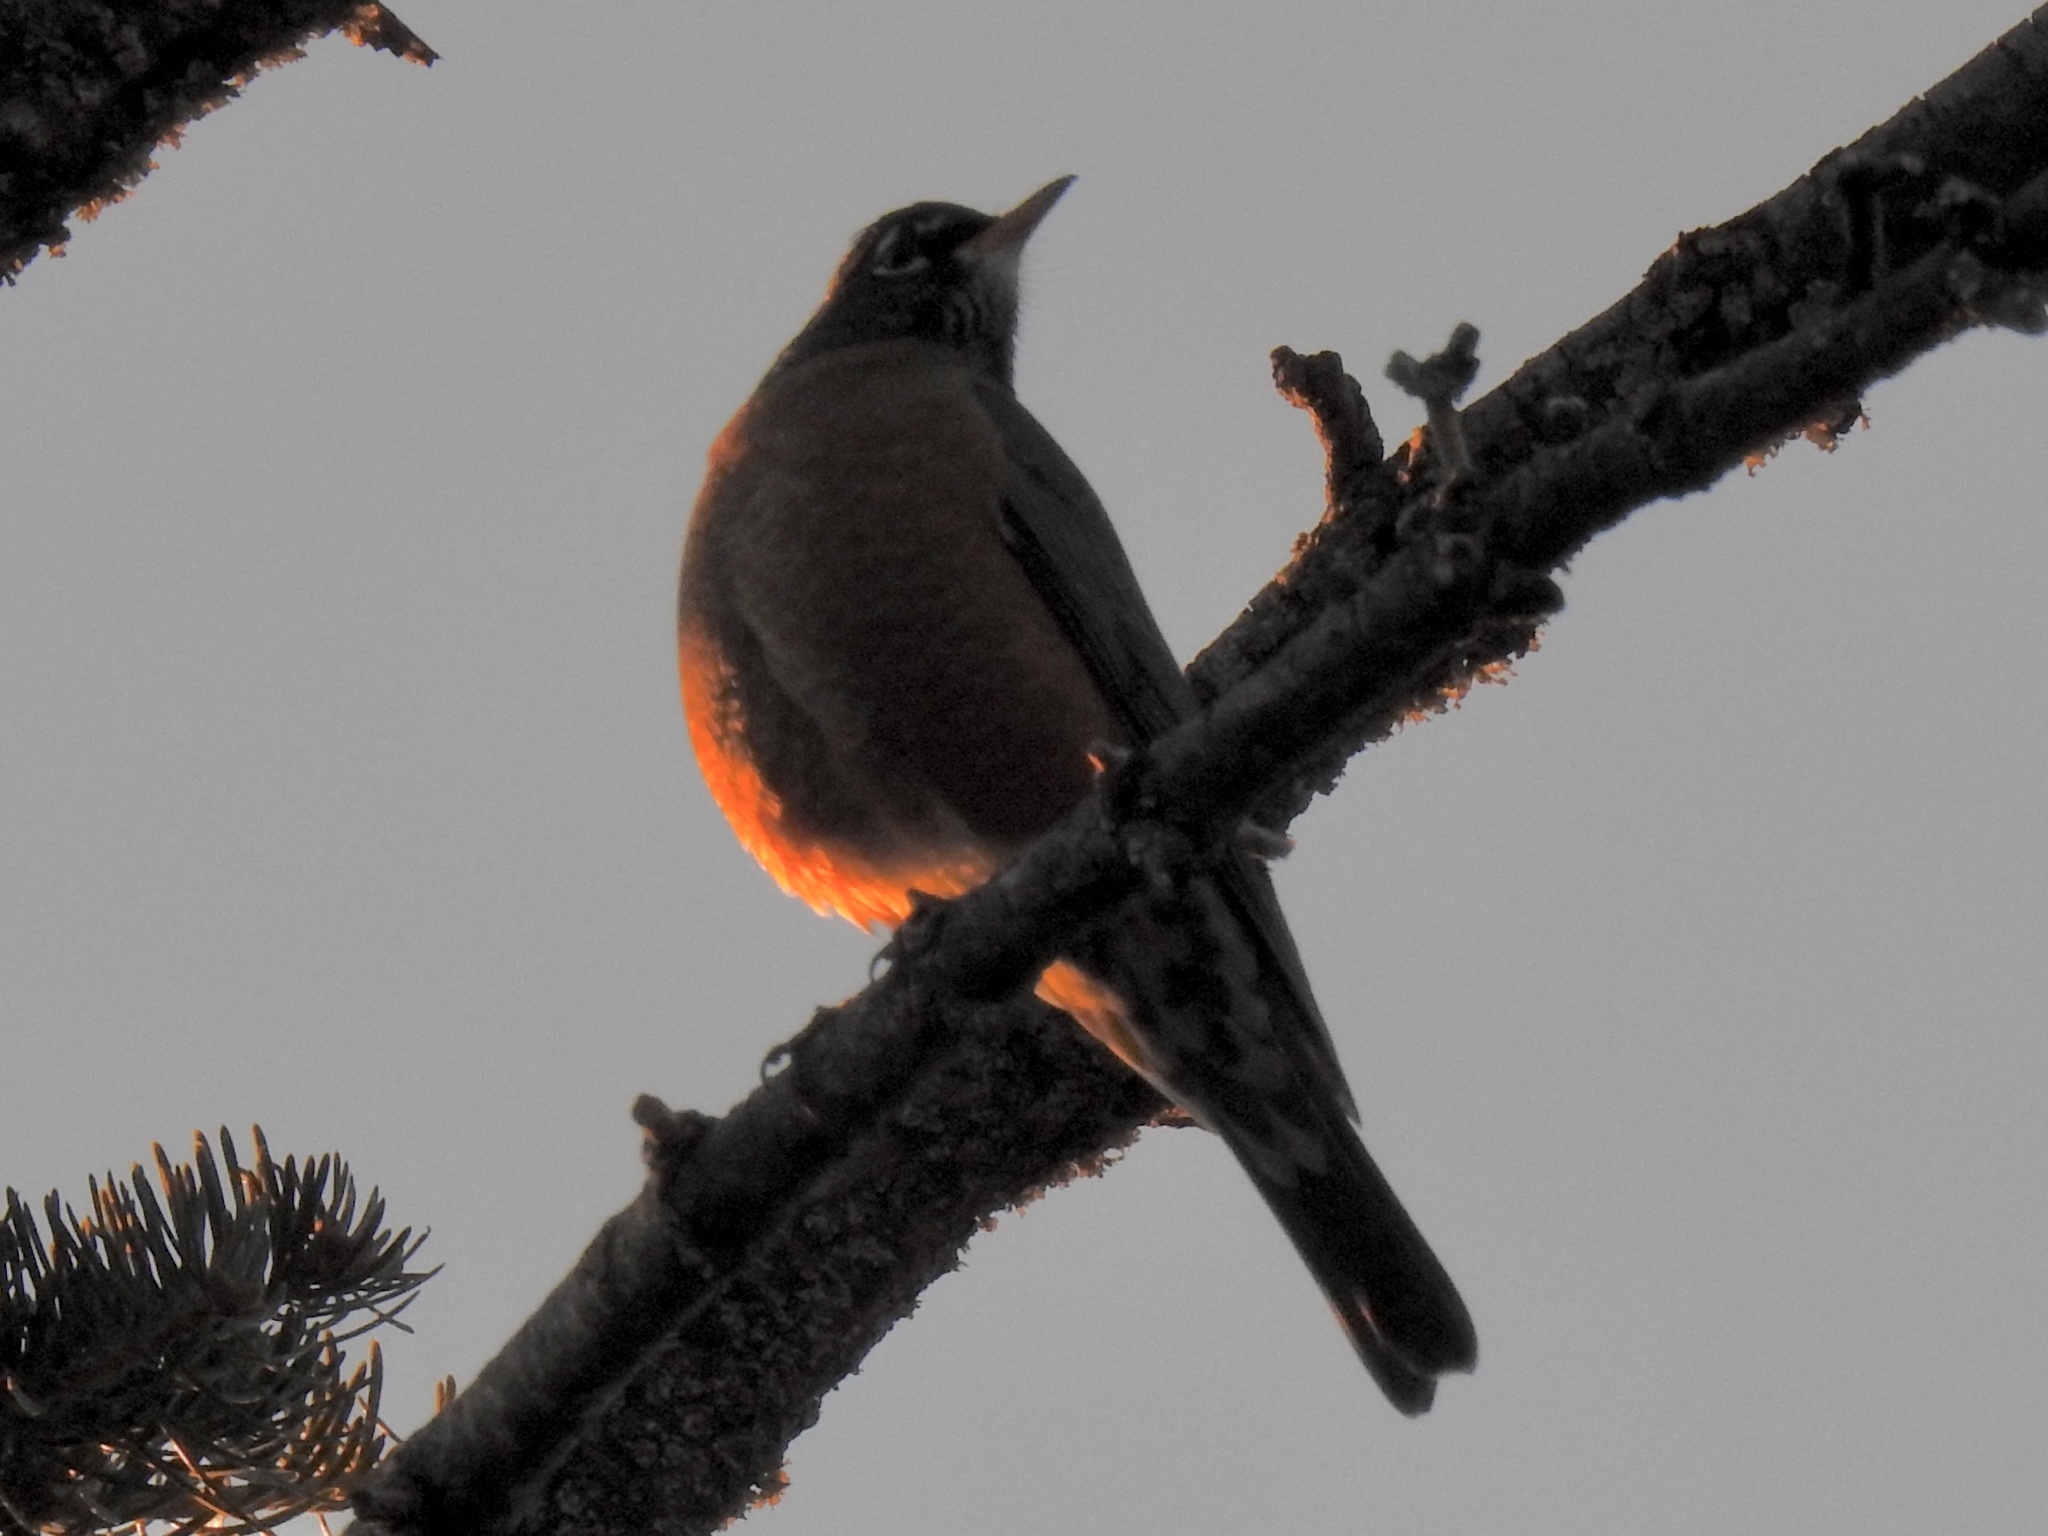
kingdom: Animalia
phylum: Chordata
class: Aves
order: Passeriformes
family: Turdidae
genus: Turdus
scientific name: Turdus migratorius
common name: American robin
